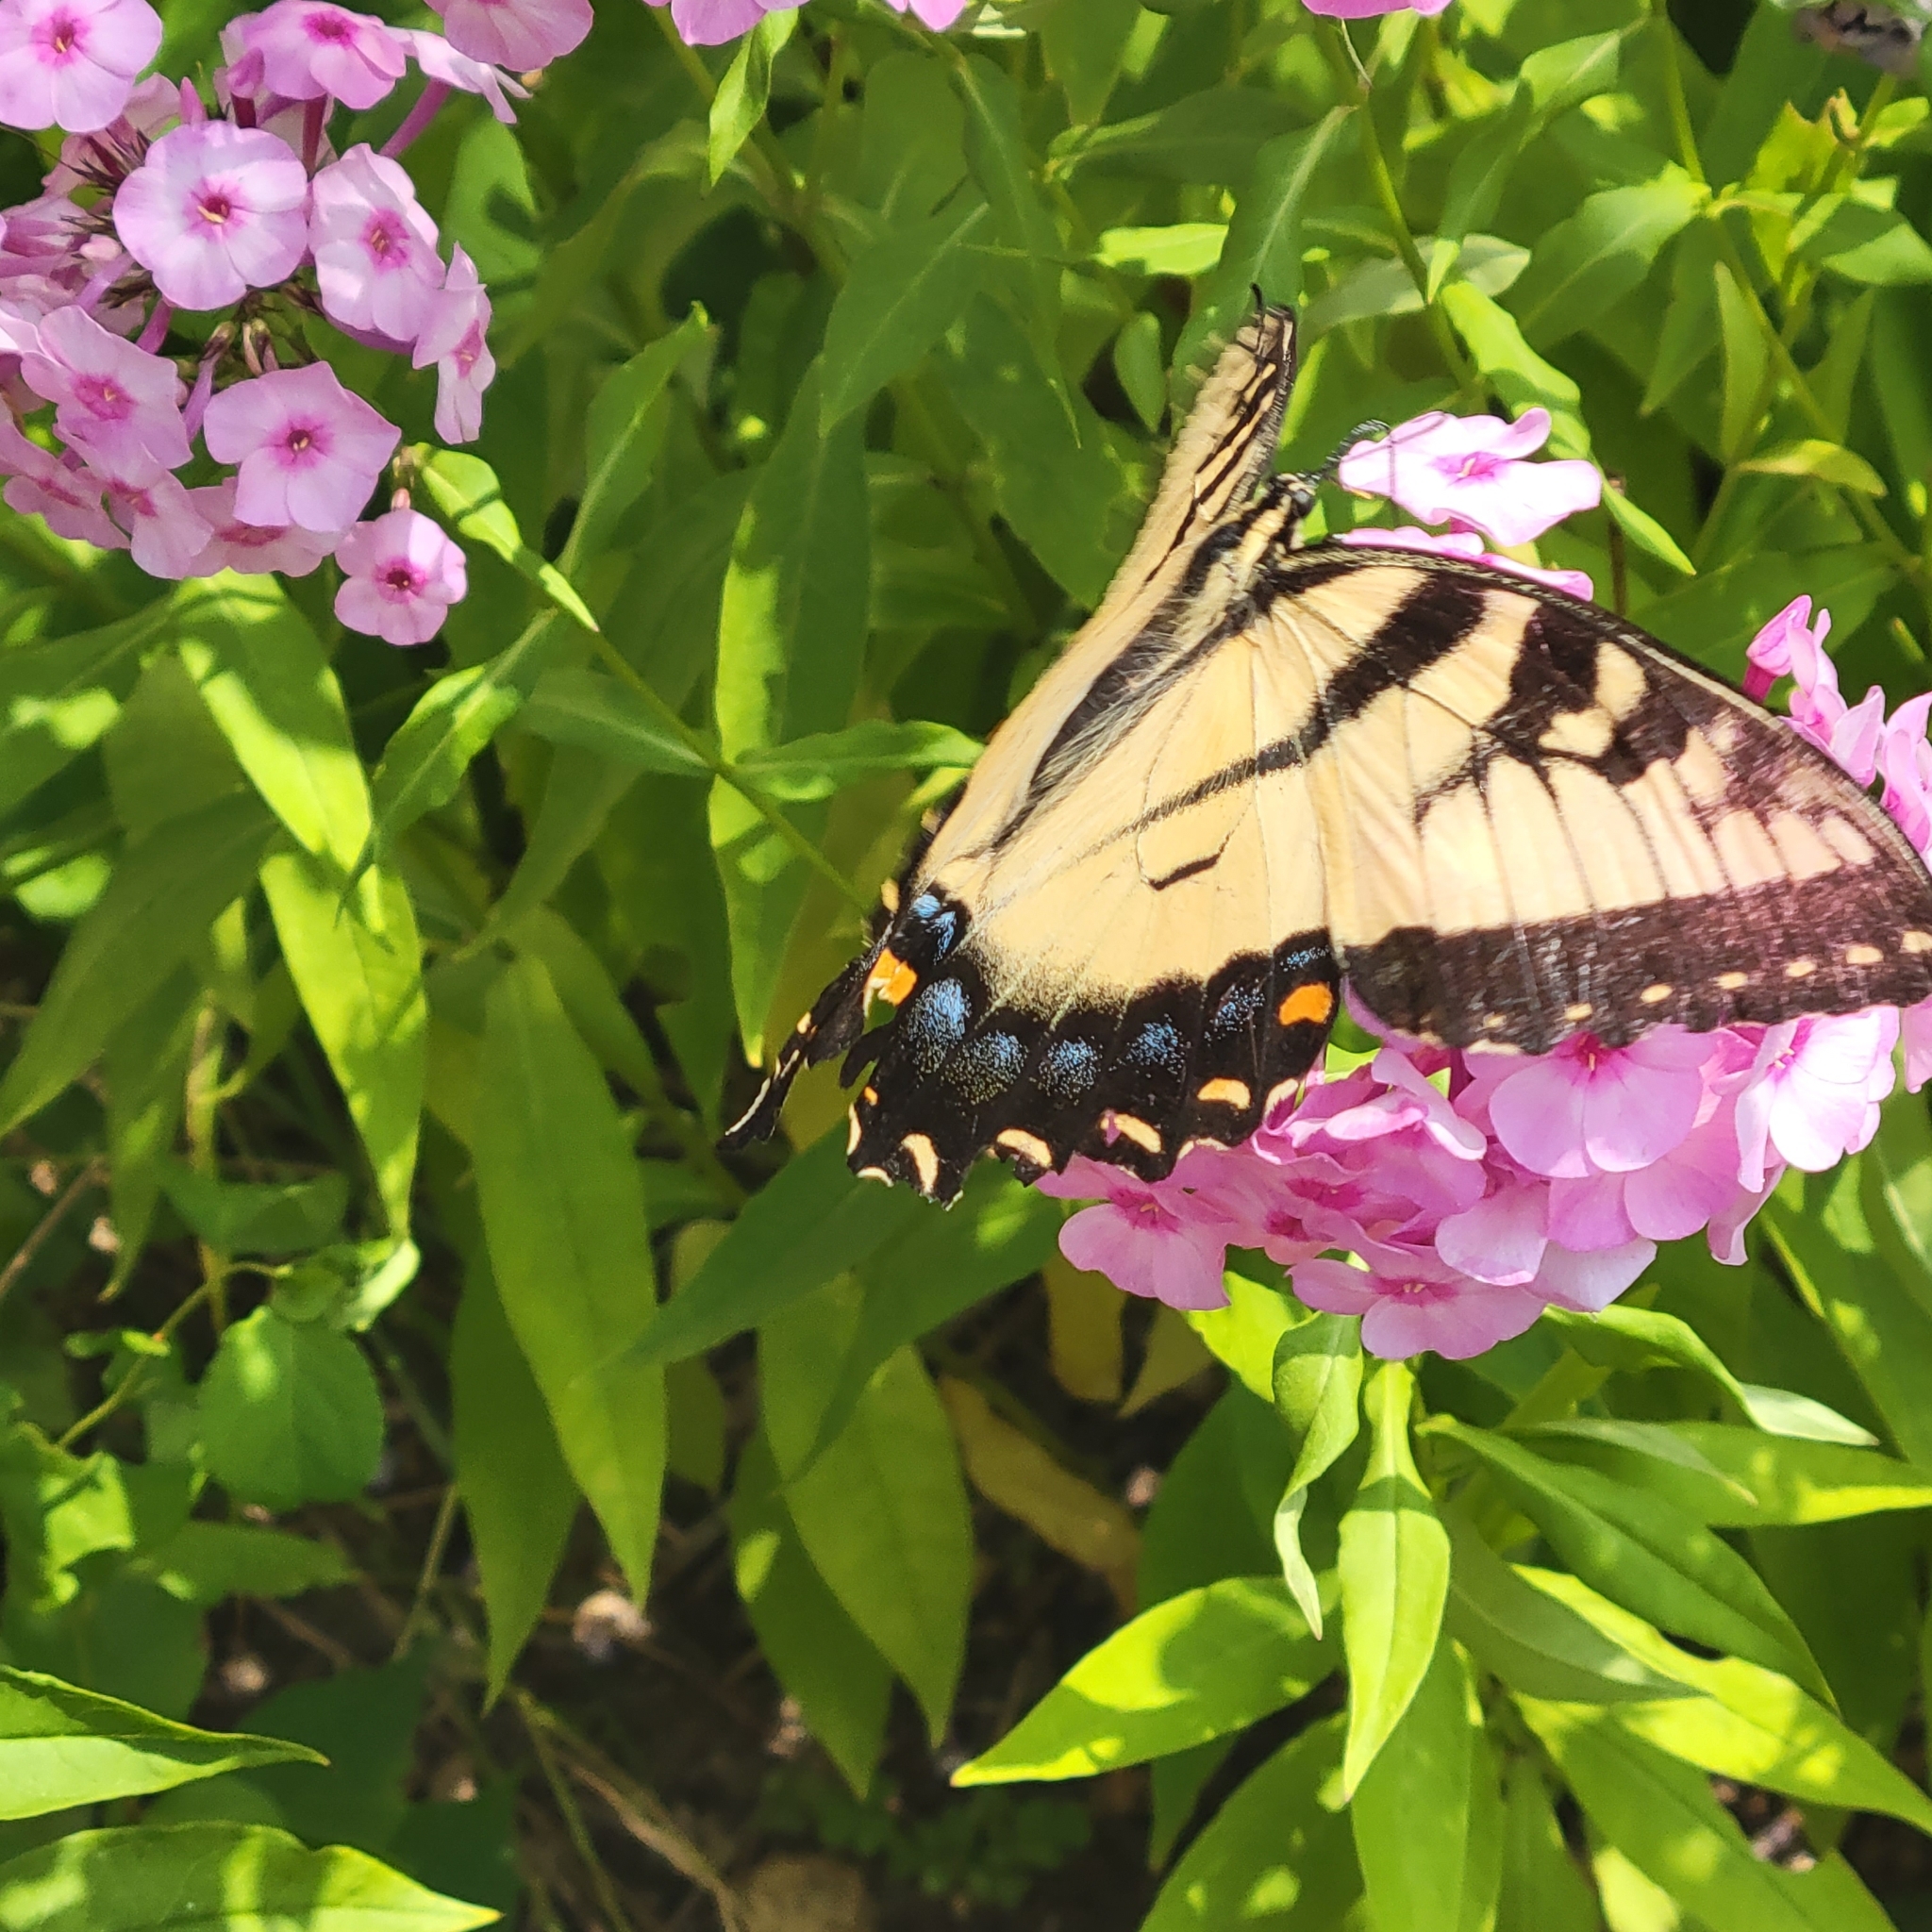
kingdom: Animalia
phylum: Arthropoda
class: Insecta
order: Lepidoptera
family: Papilionidae
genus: Papilio
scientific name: Papilio glaucus
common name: Tiger swallowtail
